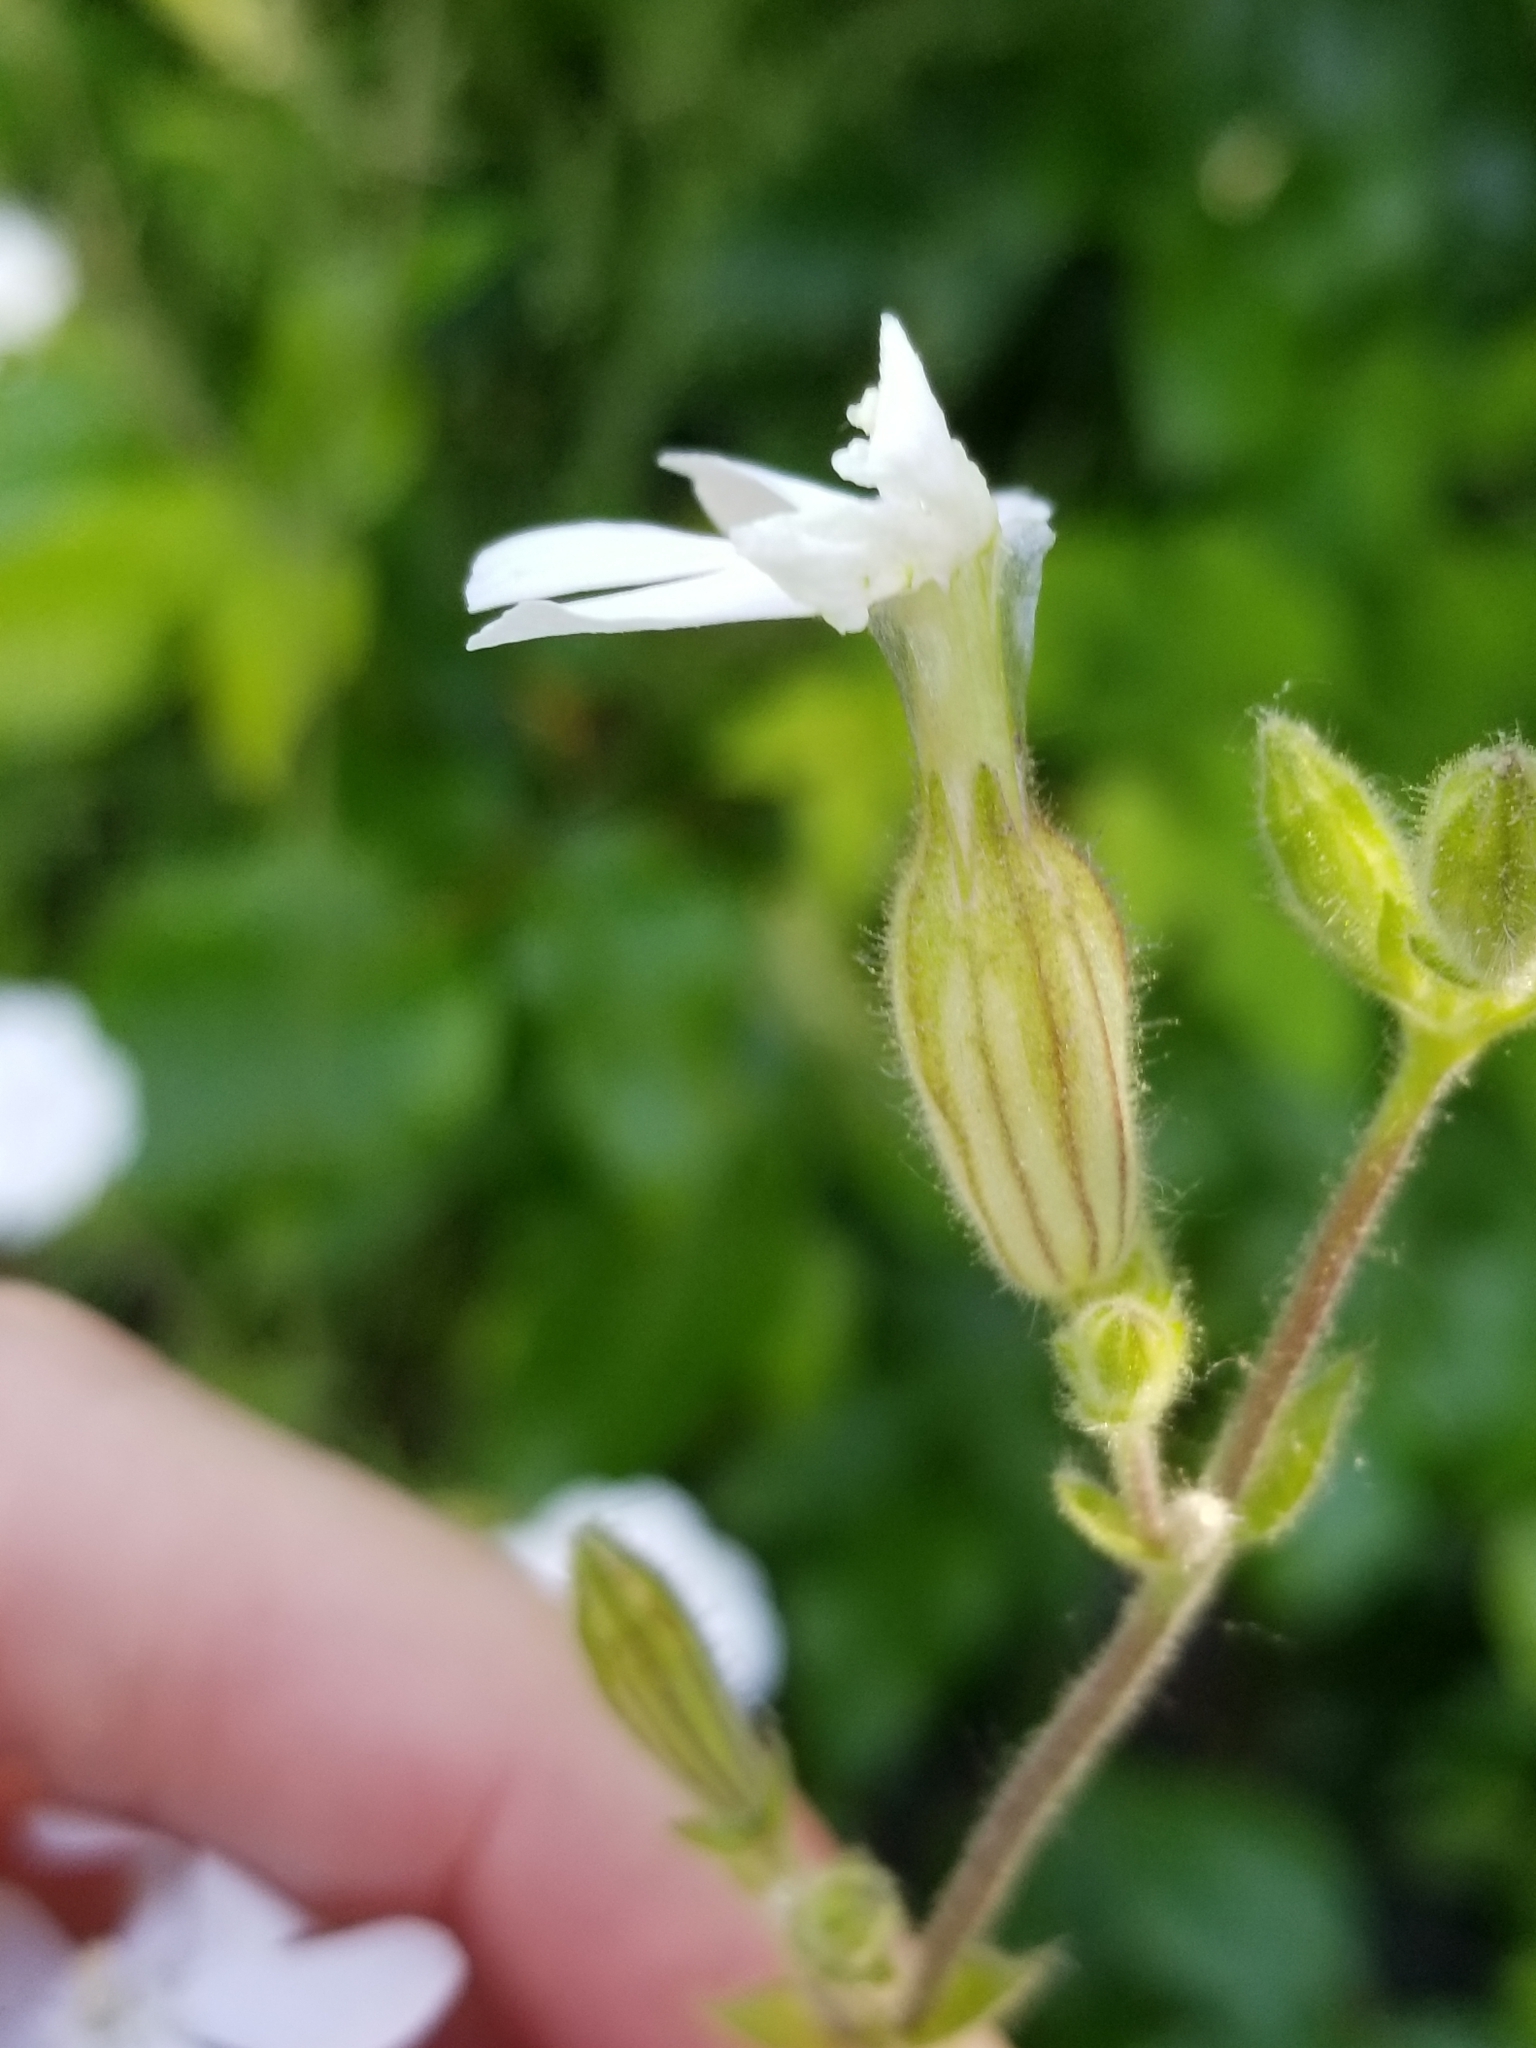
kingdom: Plantae
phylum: Tracheophyta
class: Magnoliopsida
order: Caryophyllales
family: Caryophyllaceae
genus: Silene
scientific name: Silene latifolia
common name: White campion
